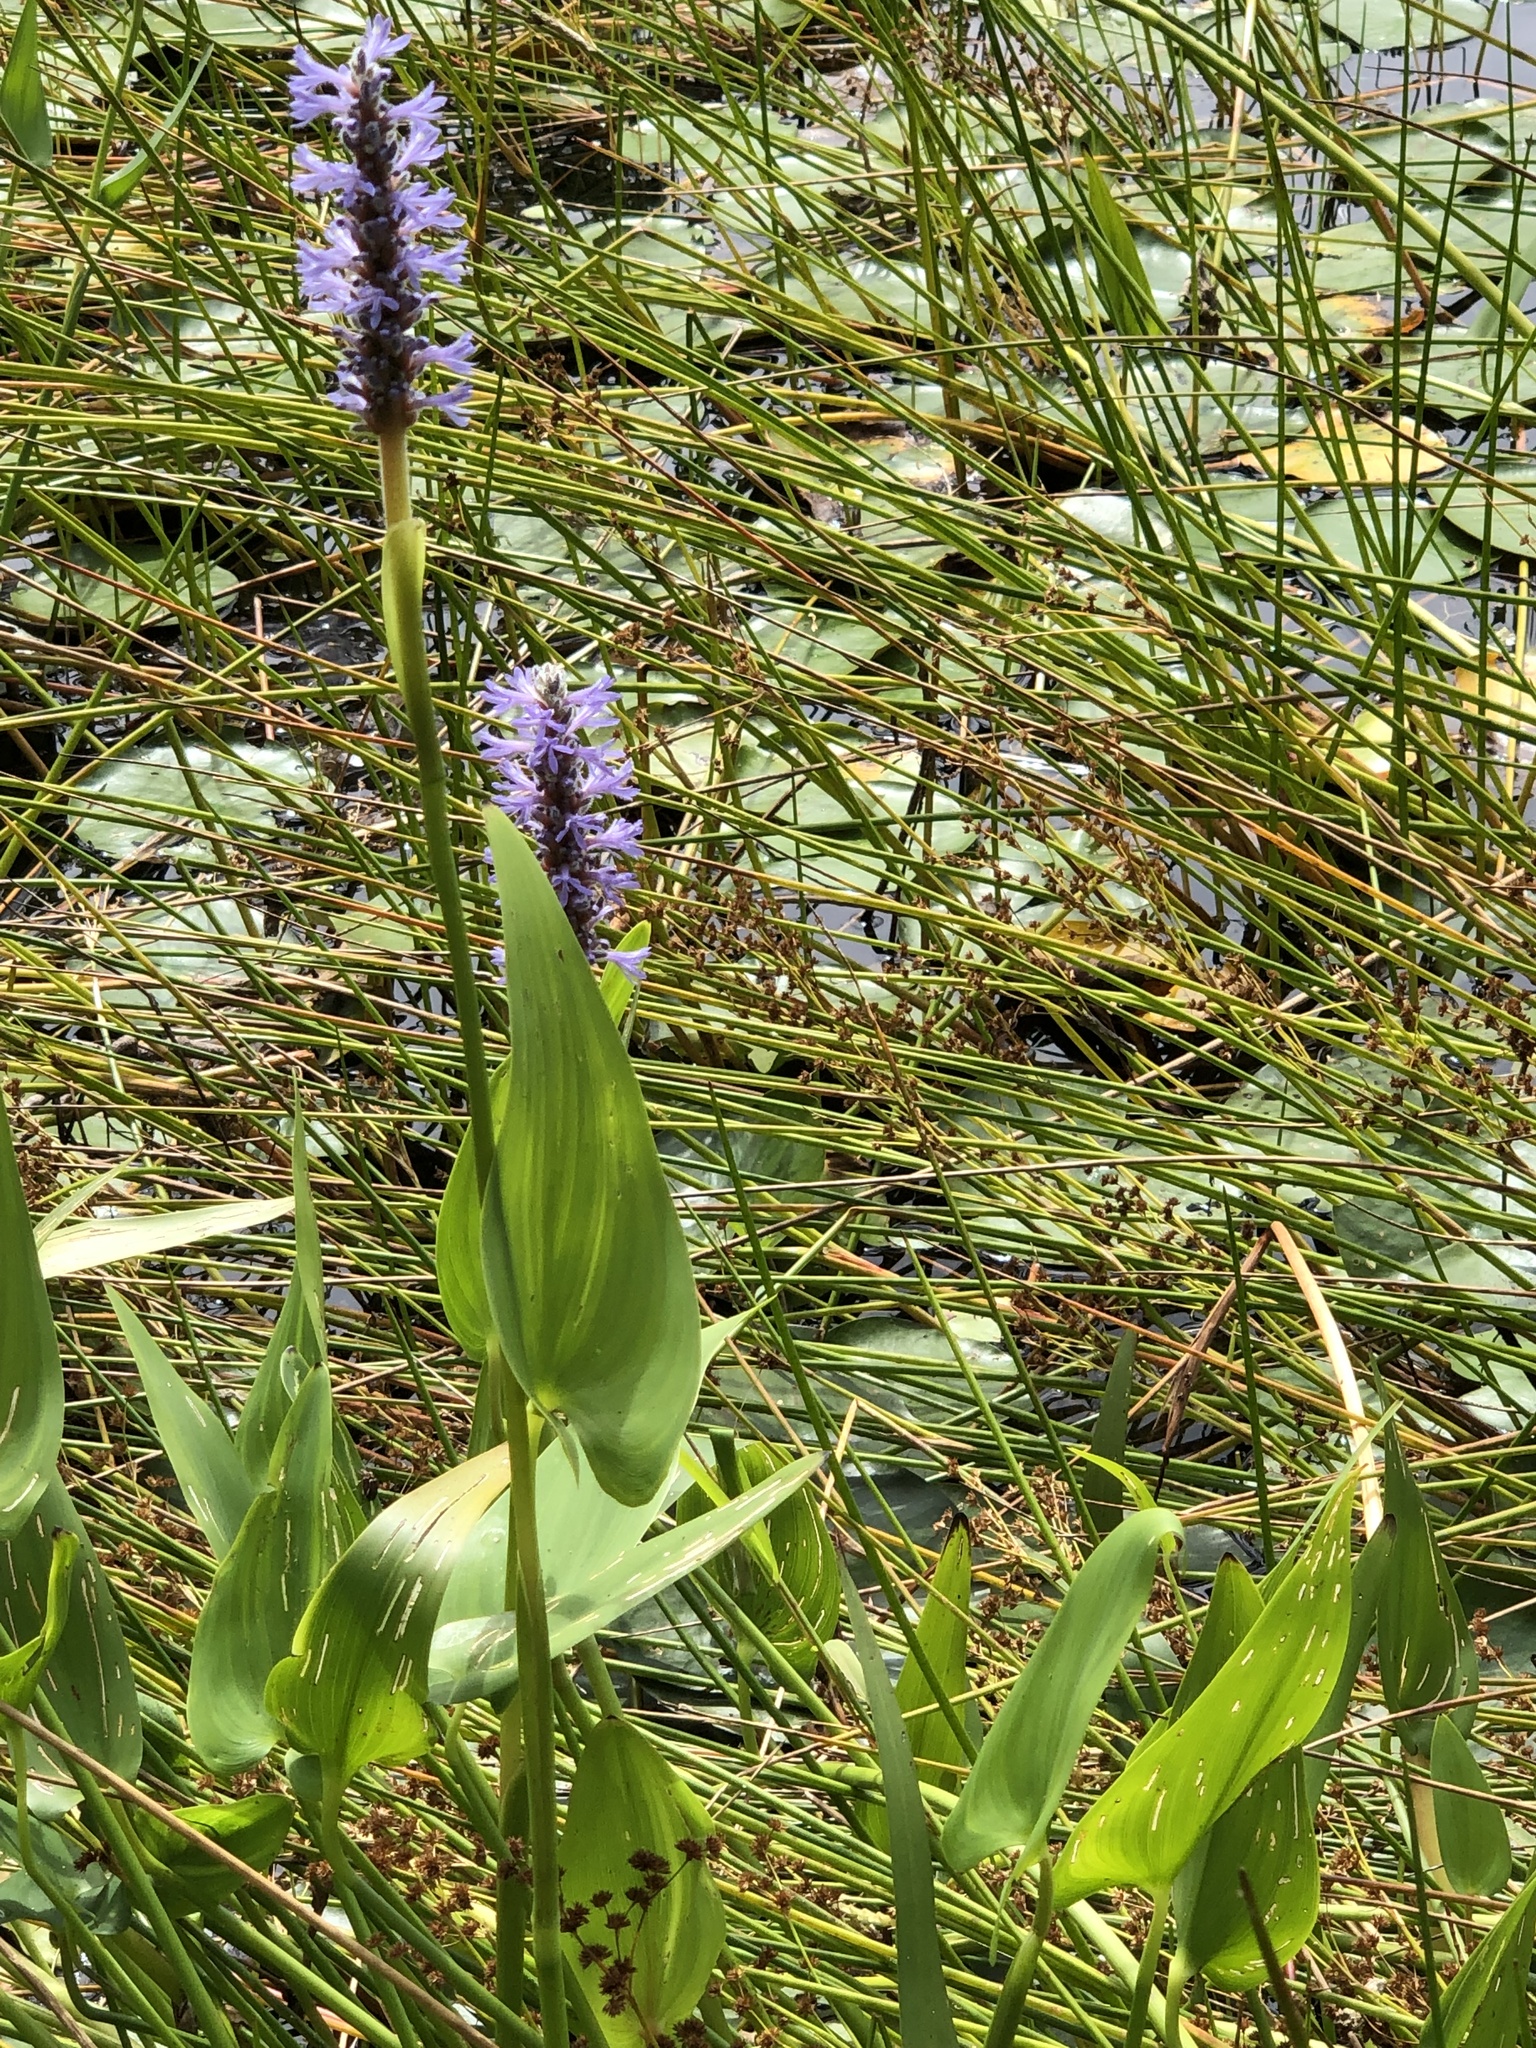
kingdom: Plantae
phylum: Tracheophyta
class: Liliopsida
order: Commelinales
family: Pontederiaceae
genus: Pontederia
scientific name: Pontederia cordata
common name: Pickerelweed
